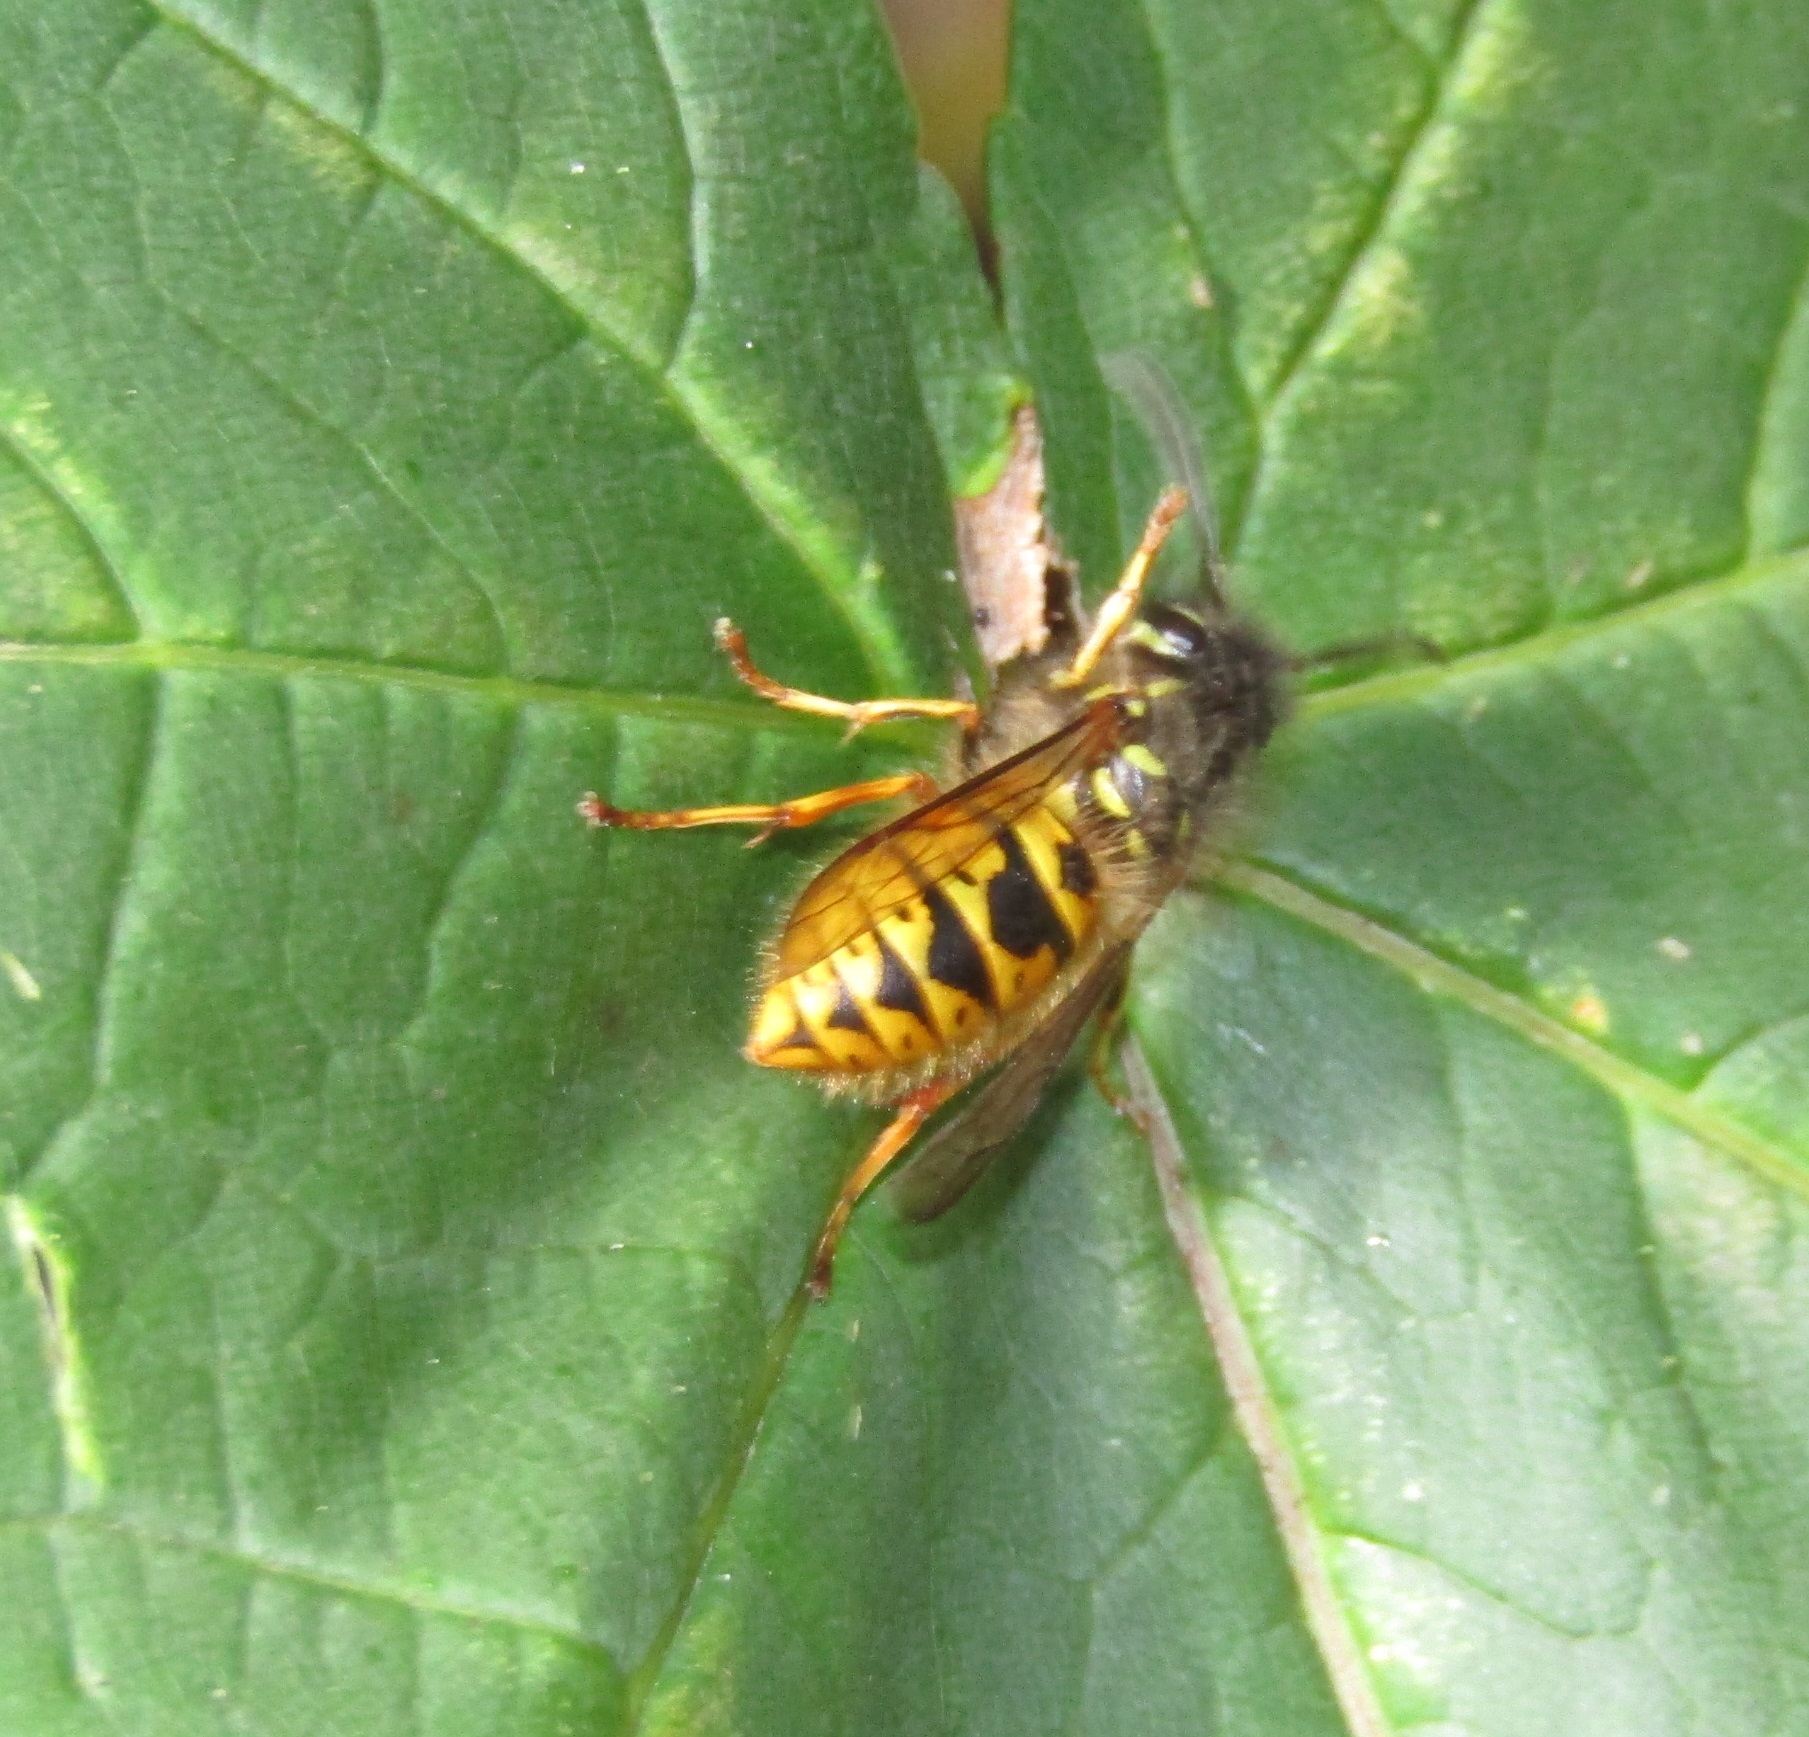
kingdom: Animalia
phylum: Arthropoda
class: Insecta
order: Hymenoptera
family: Vespidae
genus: Vespula
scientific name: Vespula vulgaris
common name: Common wasp
